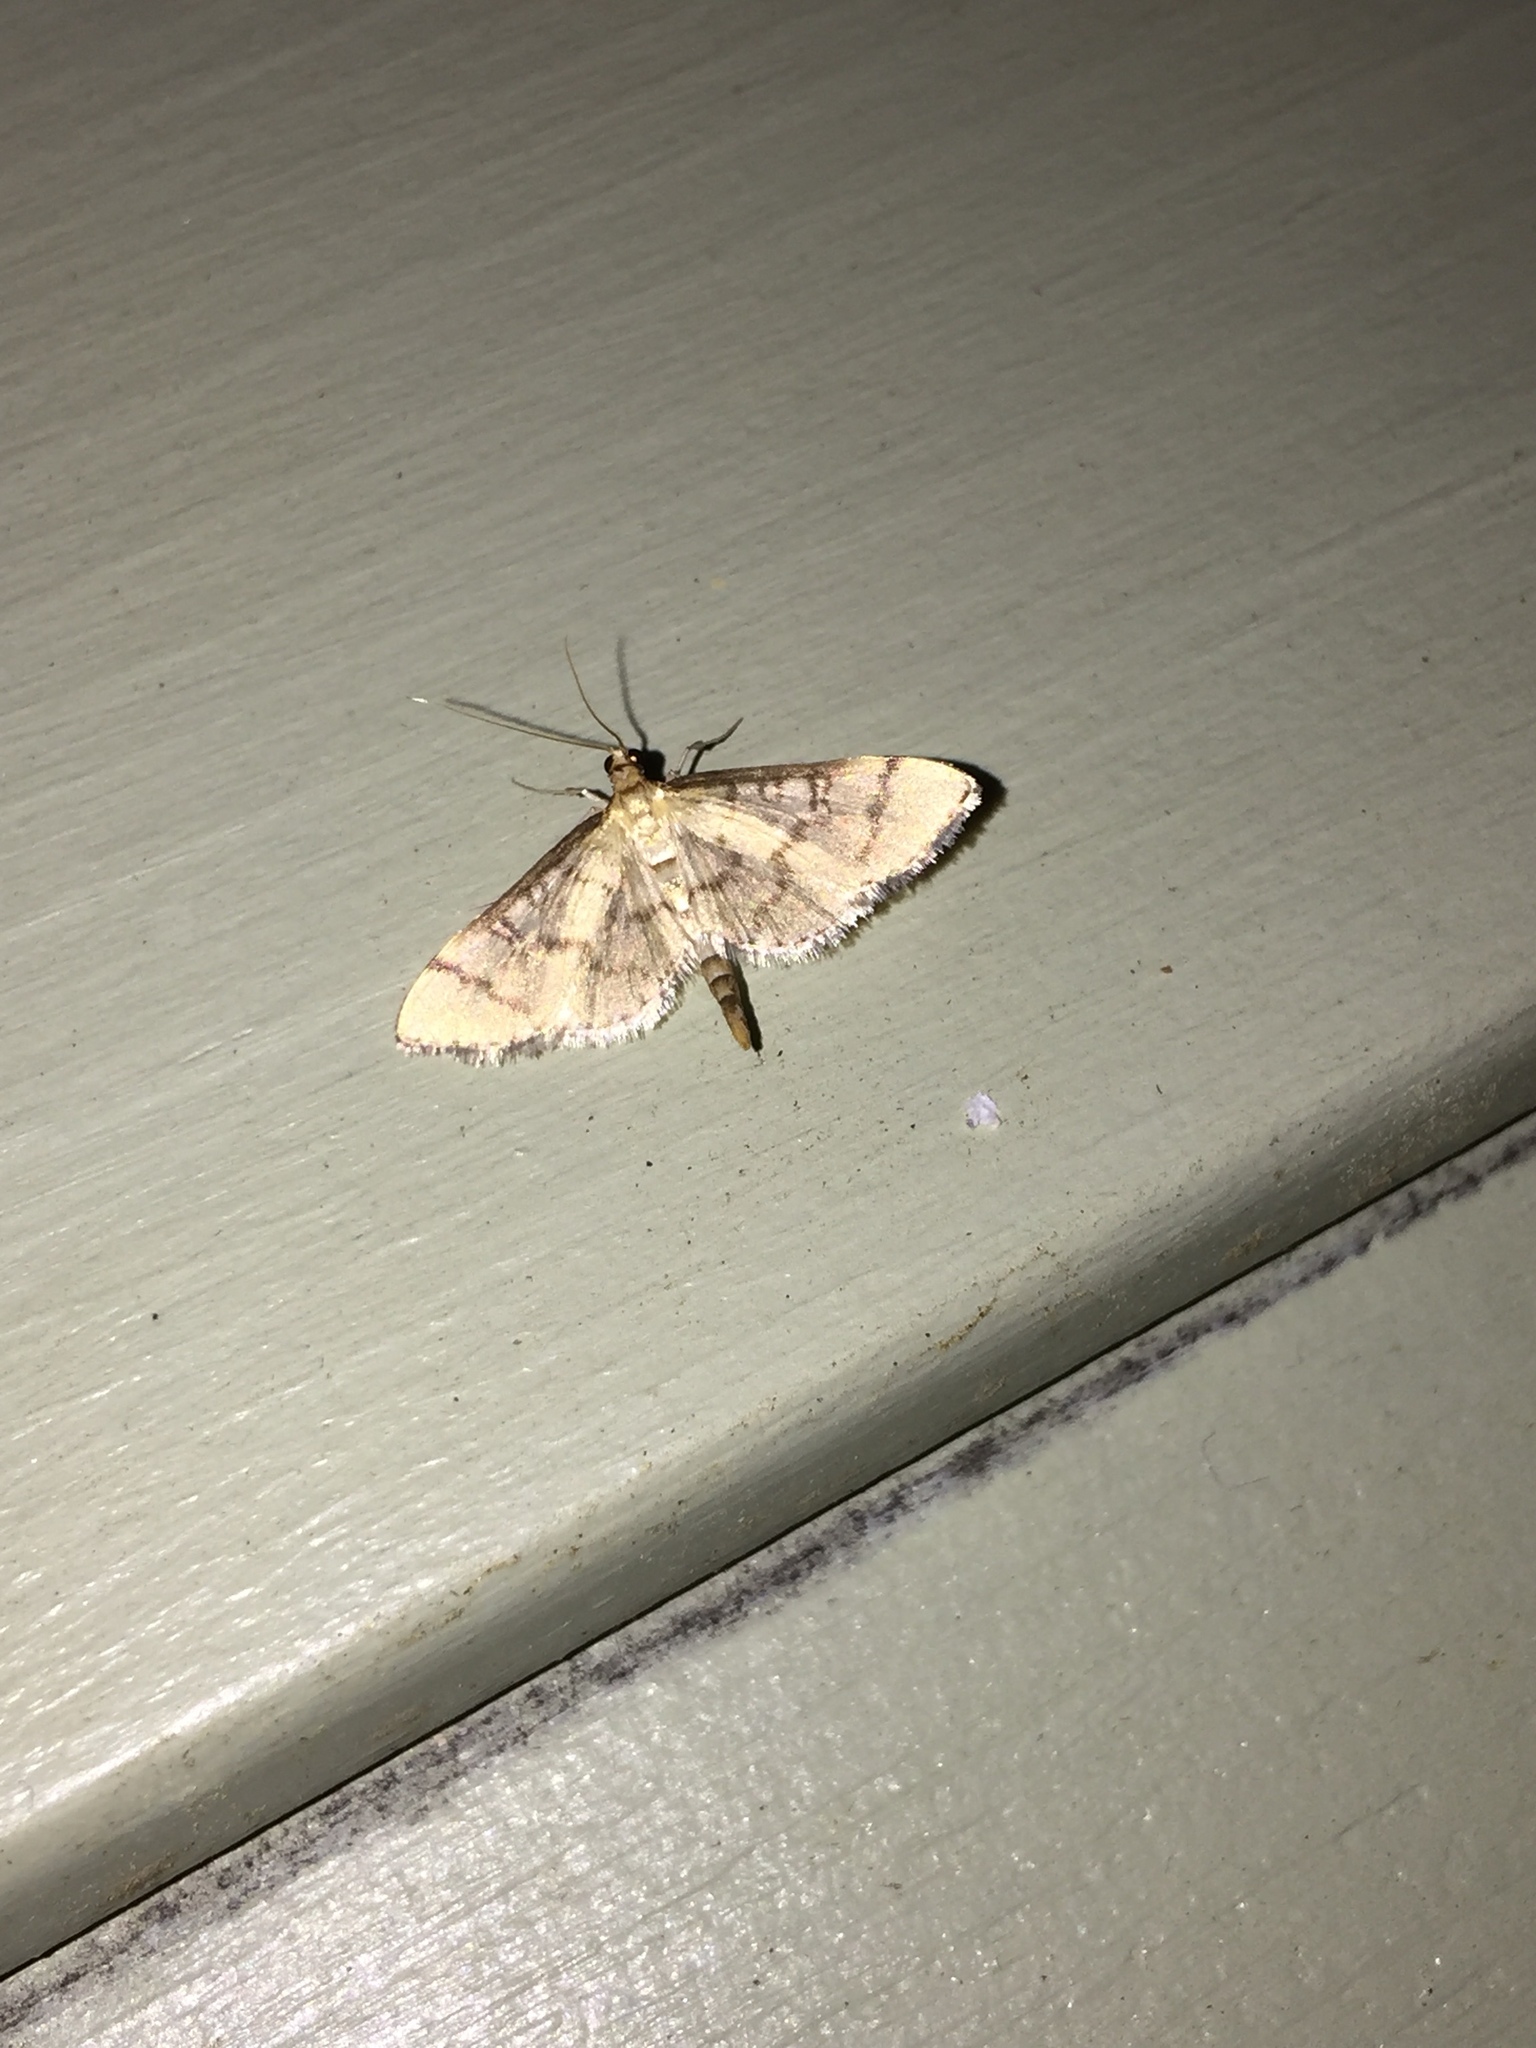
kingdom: Animalia
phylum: Arthropoda
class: Insecta
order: Lepidoptera
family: Crambidae
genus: Lamprosema
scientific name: Lamprosema Blepharomastix ranalis
